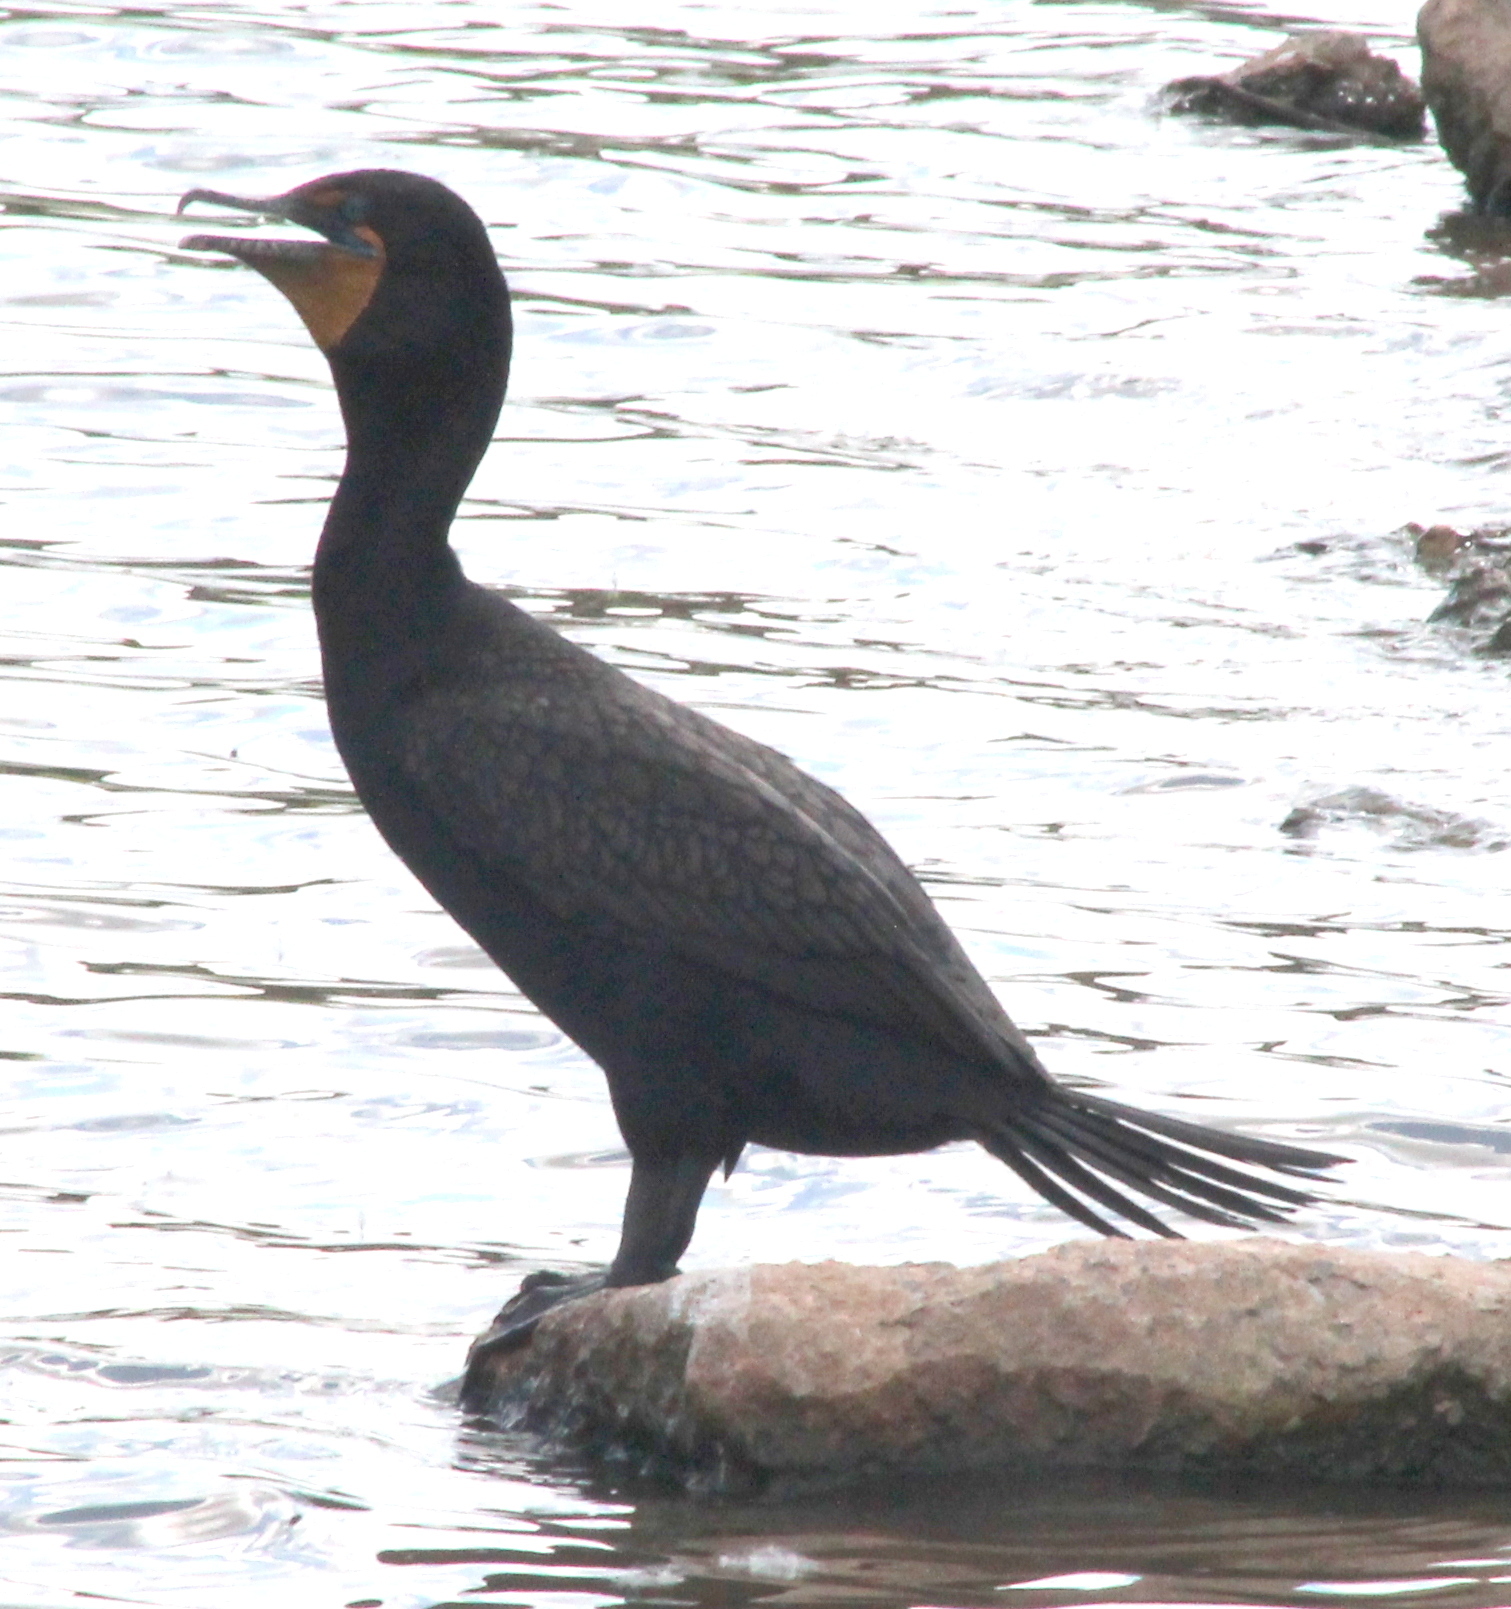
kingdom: Animalia
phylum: Chordata
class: Aves
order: Suliformes
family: Phalacrocoracidae
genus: Phalacrocorax
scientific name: Phalacrocorax auritus
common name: Double-crested cormorant
